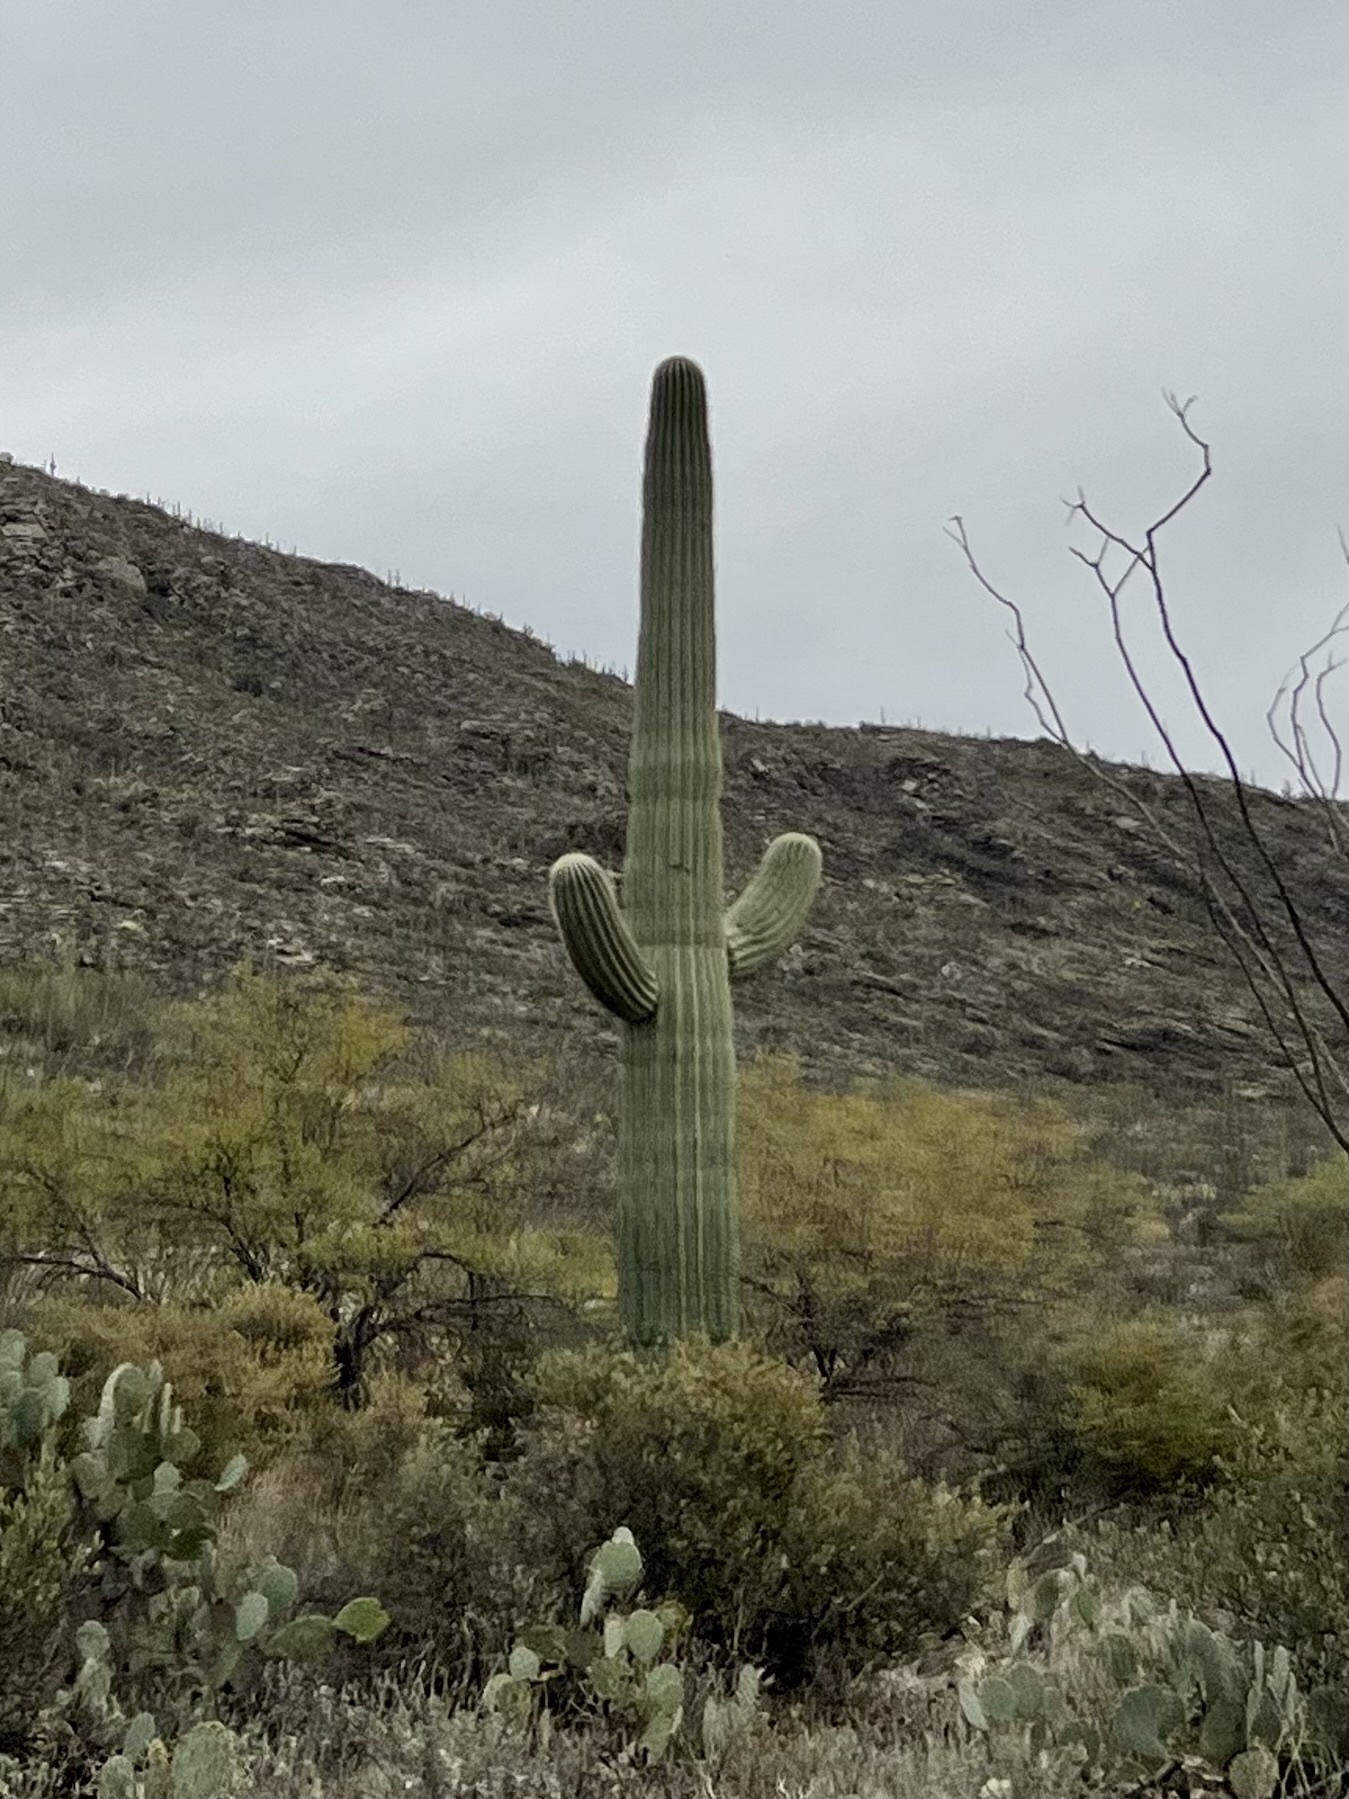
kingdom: Plantae
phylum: Tracheophyta
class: Magnoliopsida
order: Caryophyllales
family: Cactaceae
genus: Carnegiea
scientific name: Carnegiea gigantea
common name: Saguaro
